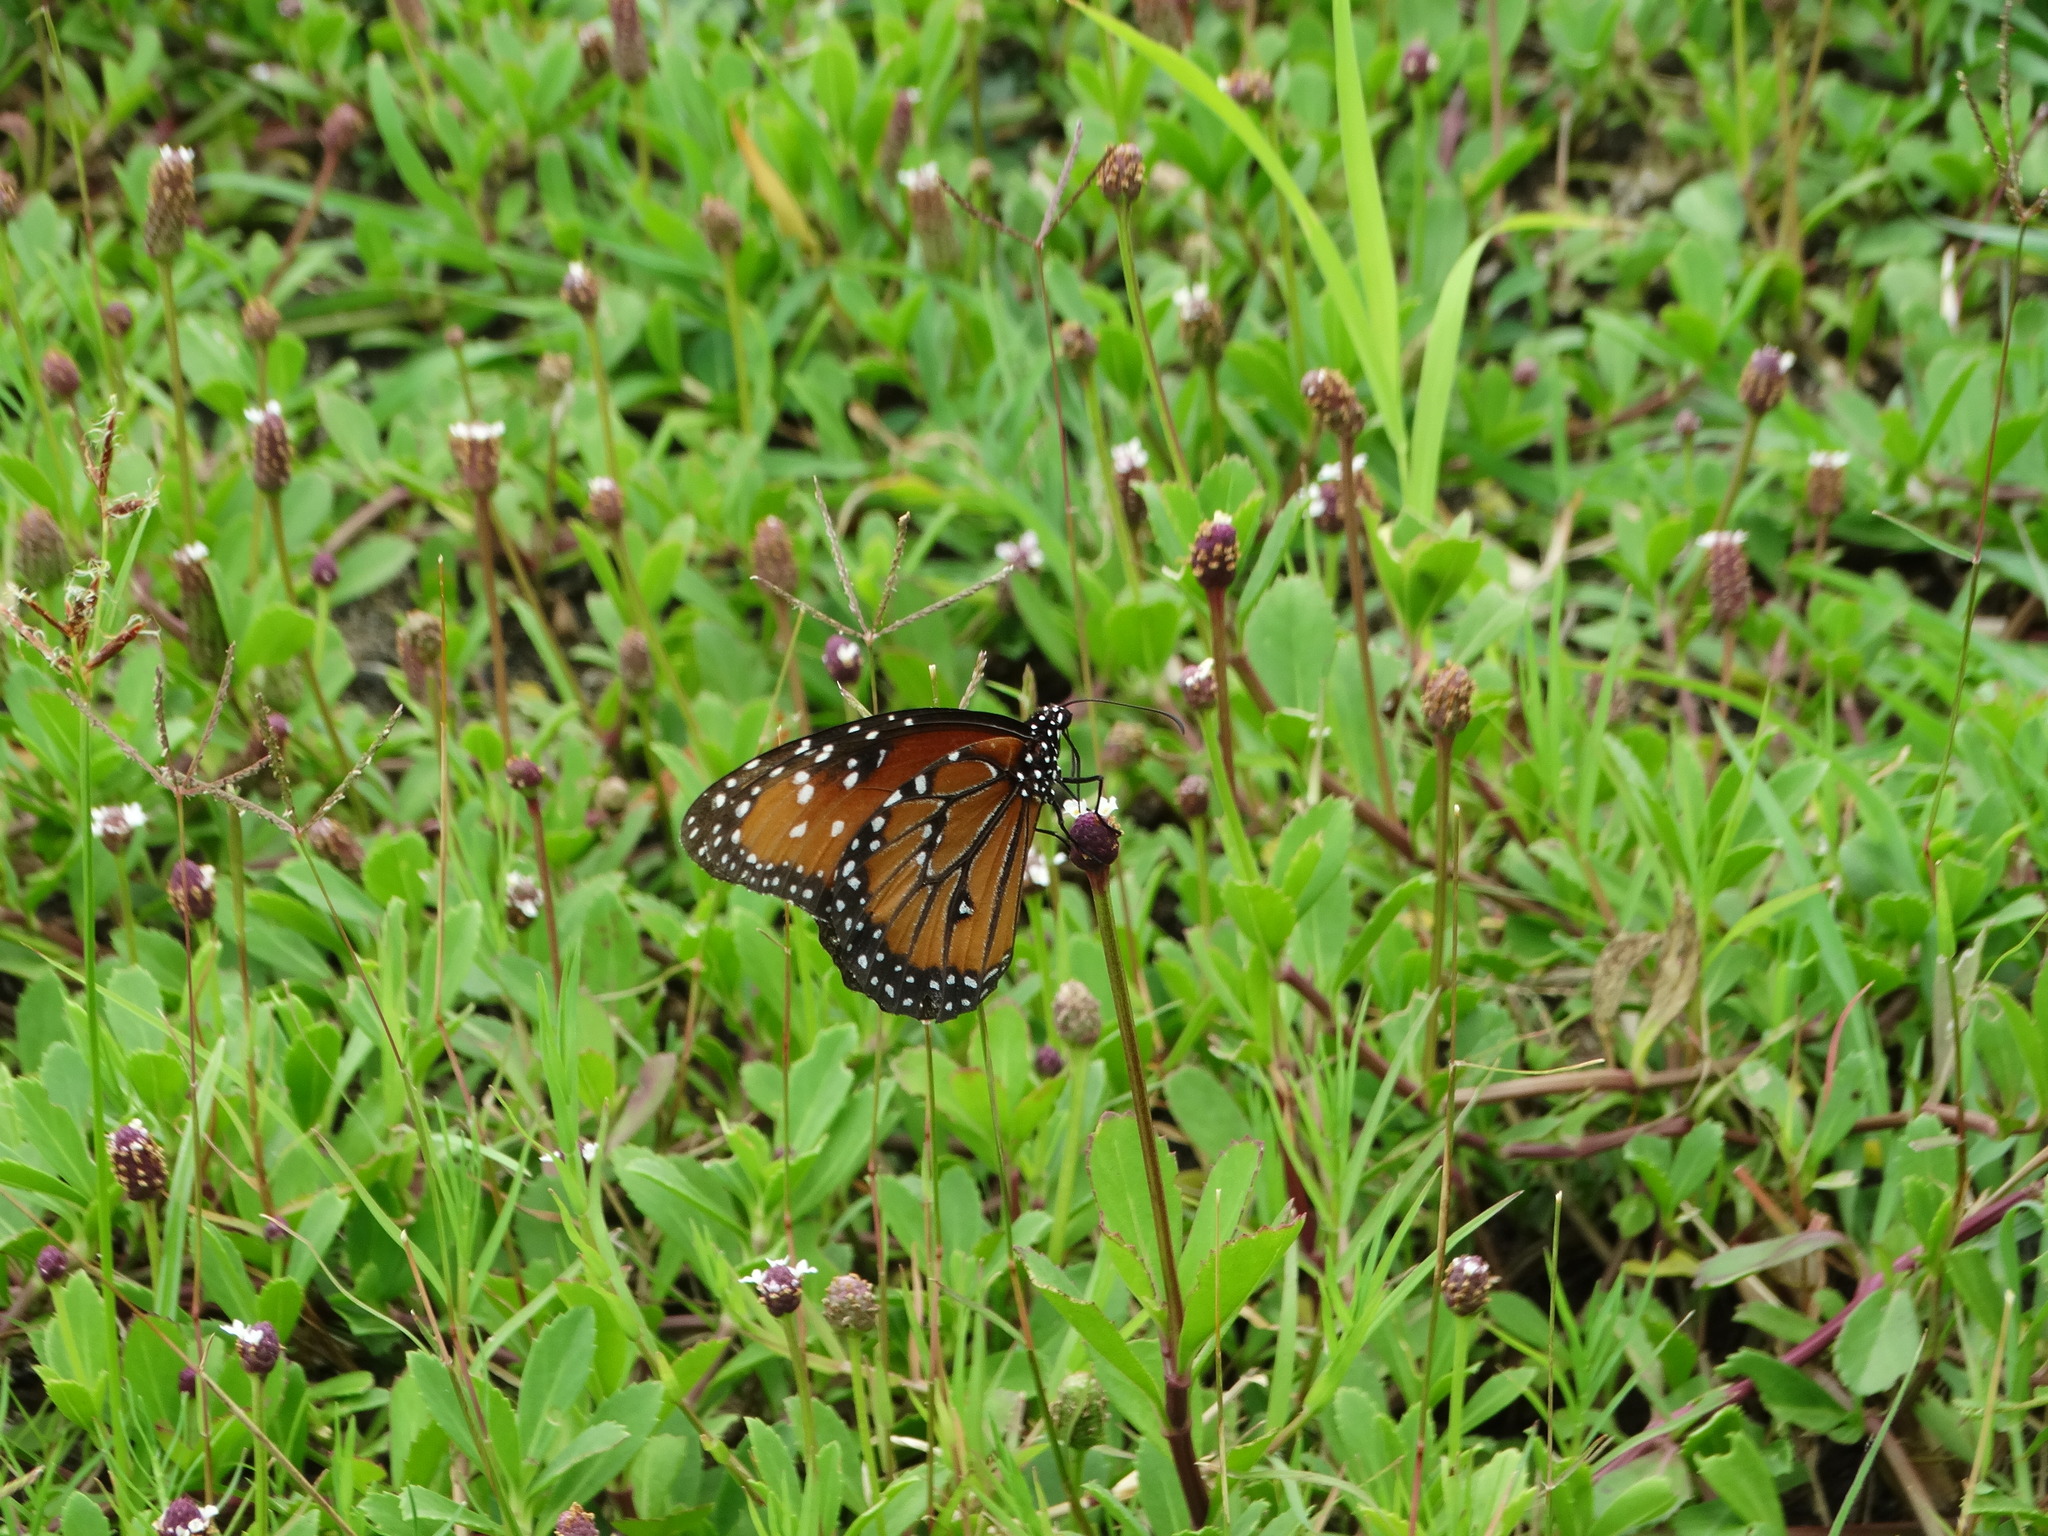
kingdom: Animalia
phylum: Arthropoda
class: Insecta
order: Lepidoptera
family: Nymphalidae
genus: Danaus
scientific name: Danaus gilippus
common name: Queen
